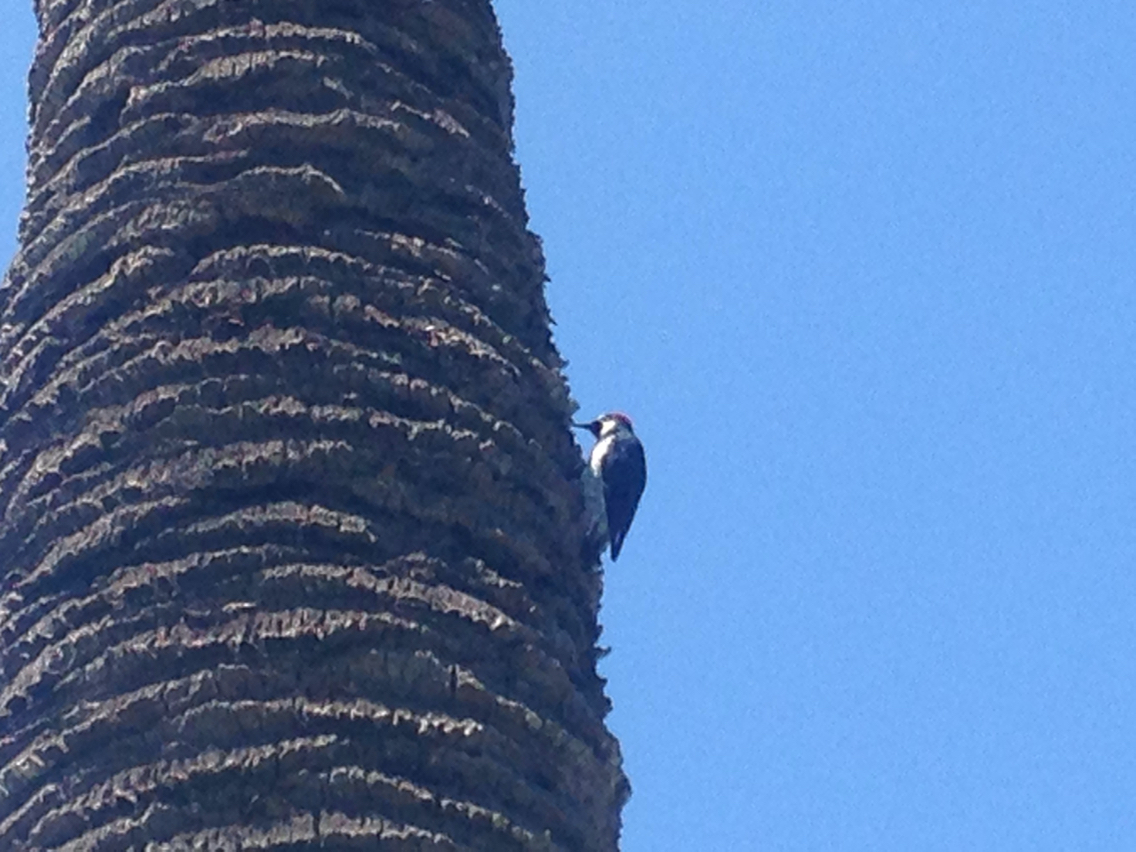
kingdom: Animalia
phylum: Chordata
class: Aves
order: Piciformes
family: Picidae
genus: Melanerpes
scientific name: Melanerpes formicivorus
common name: Acorn woodpecker
